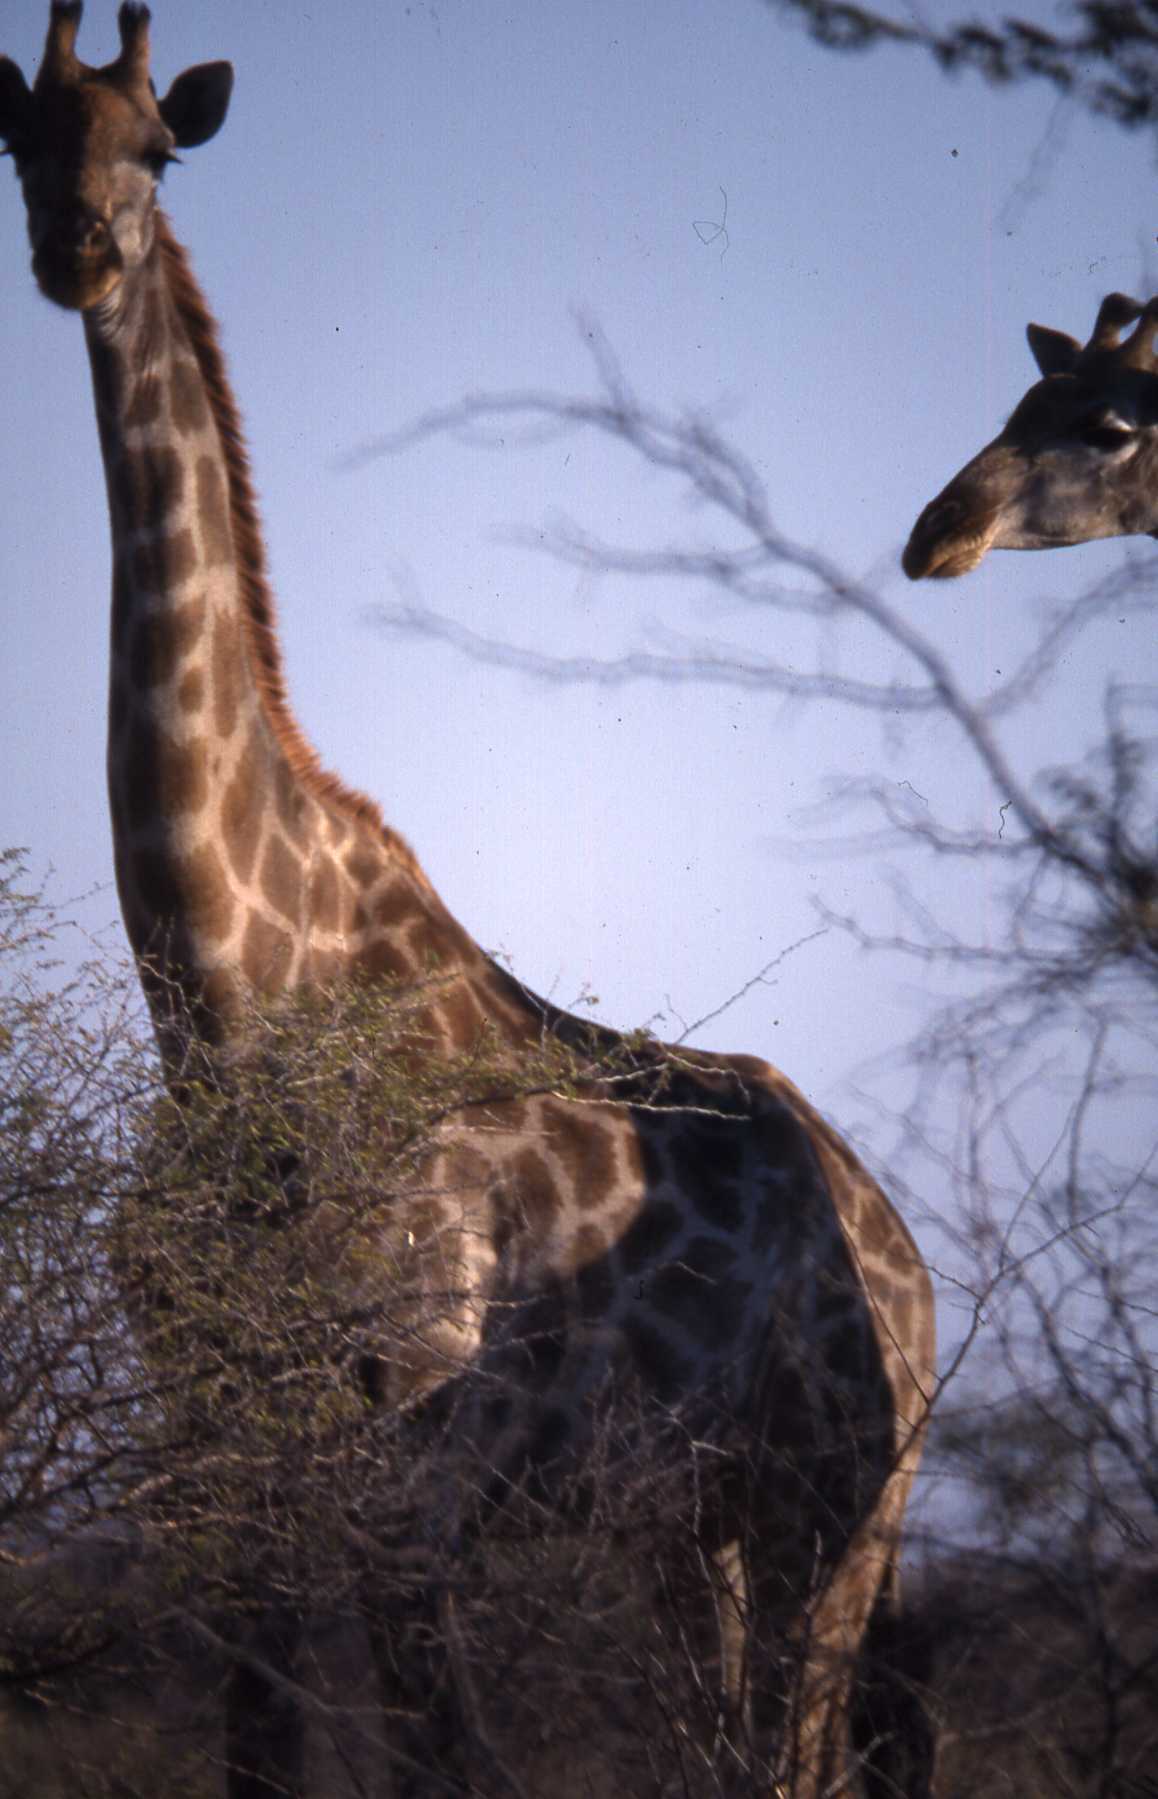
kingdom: Animalia
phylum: Chordata
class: Mammalia
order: Artiodactyla
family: Giraffidae
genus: Giraffa
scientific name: Giraffa giraffa
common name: Southern giraffe
